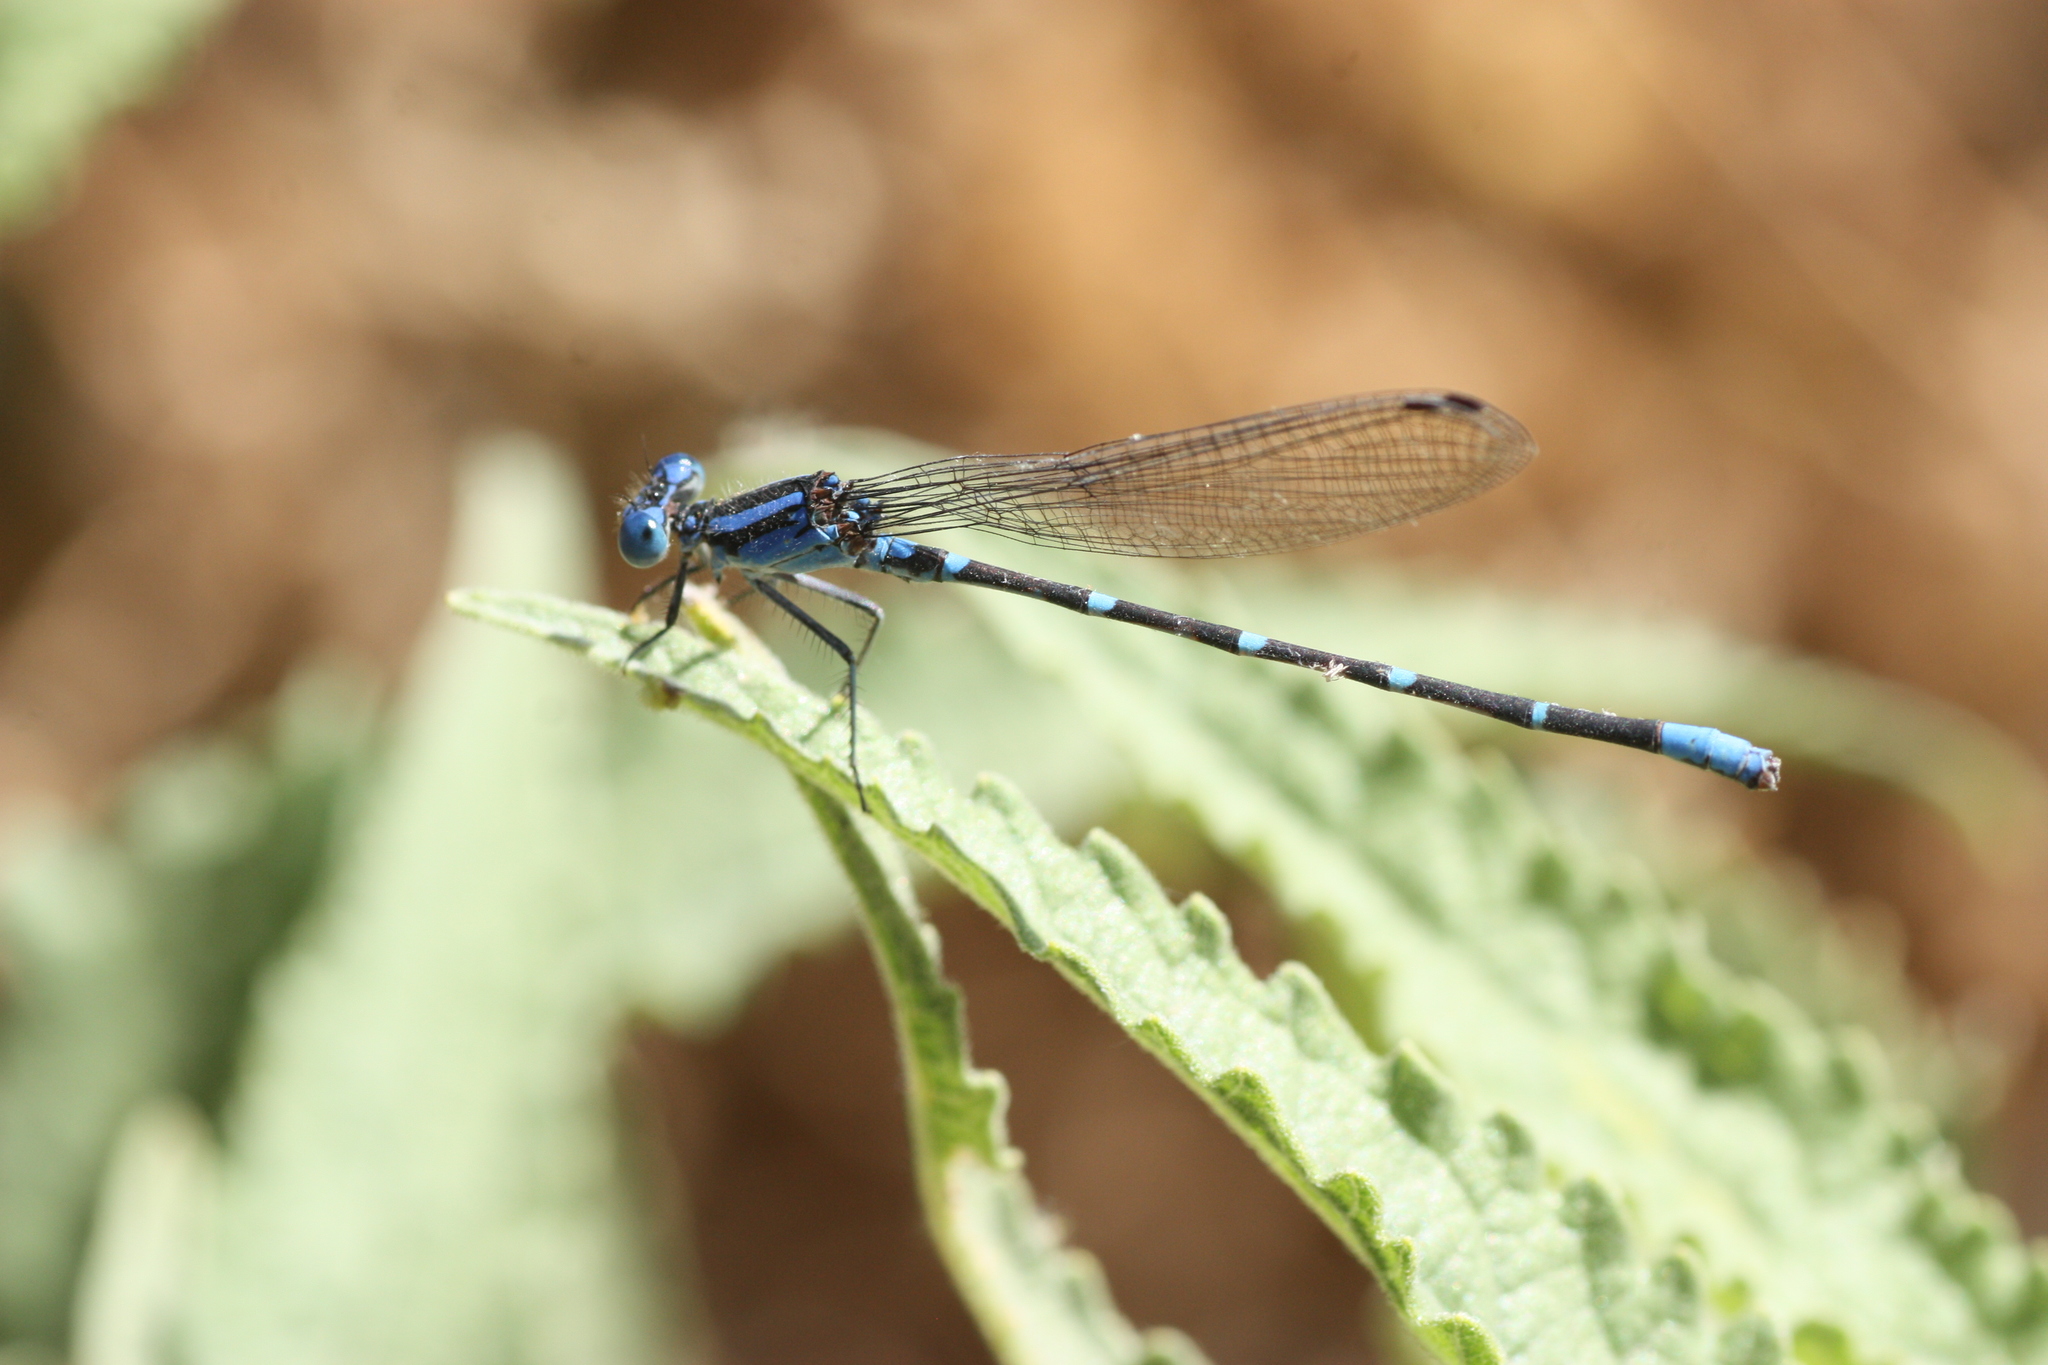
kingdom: Animalia
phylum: Arthropoda
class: Insecta
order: Odonata
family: Coenagrionidae
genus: Argia
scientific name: Argia sedula
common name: Blue-ringed dancer
